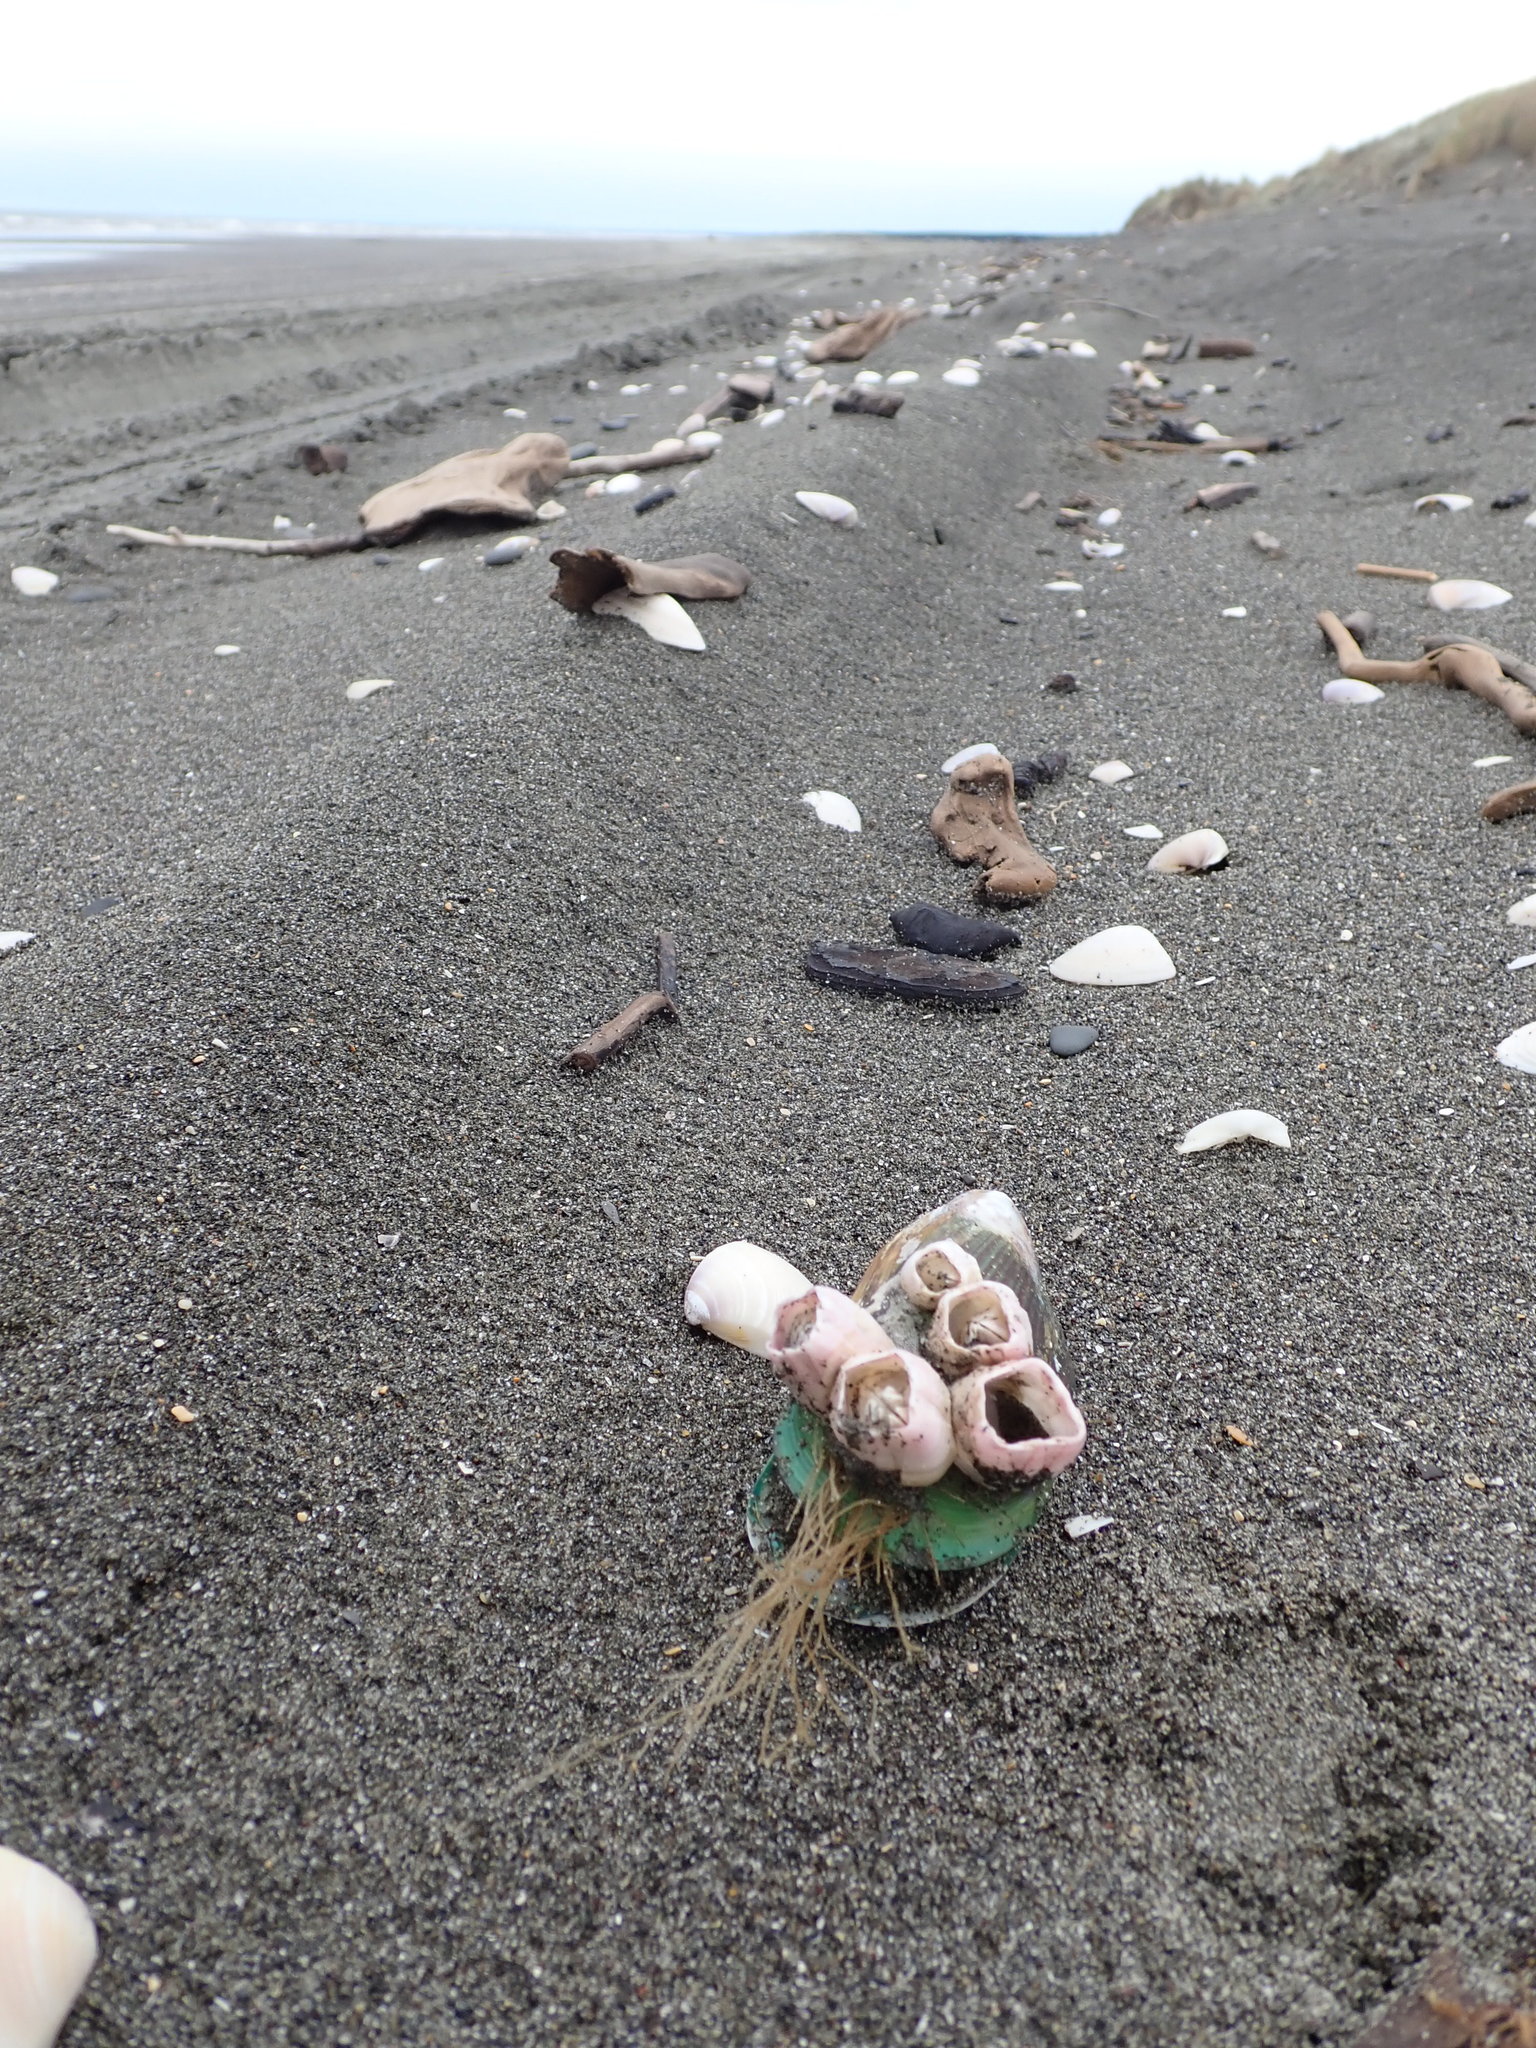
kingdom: Animalia
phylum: Cnidaria
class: Hydrozoa
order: Leptothecata
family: Sertulariidae
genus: Amphisbetia
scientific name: Amphisbetia bispinosa
